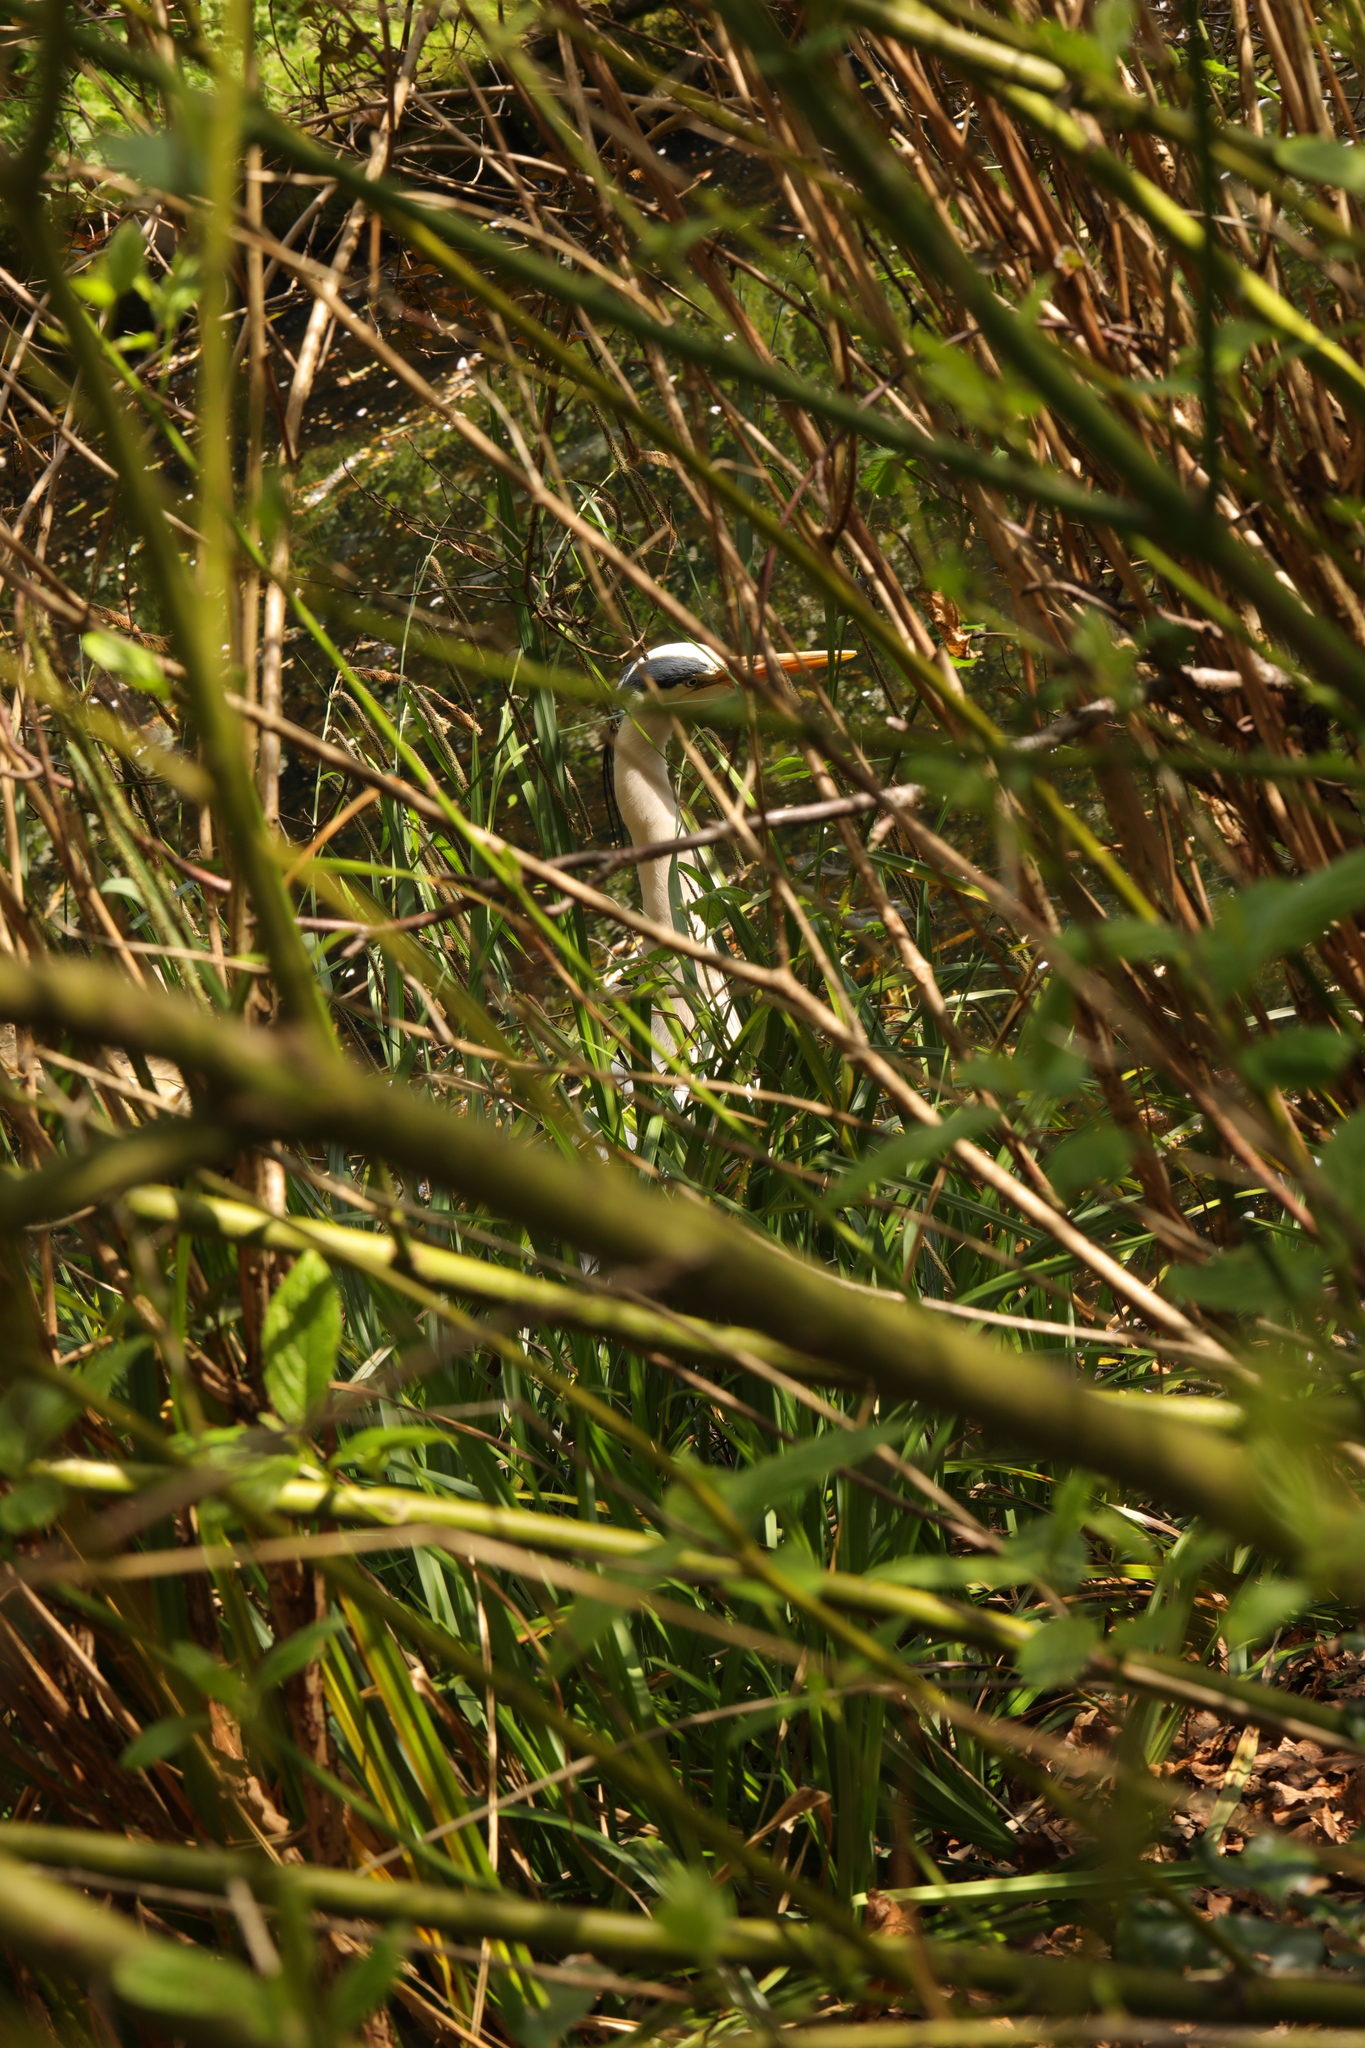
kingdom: Animalia
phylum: Chordata
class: Aves
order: Pelecaniformes
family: Ardeidae
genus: Ardea
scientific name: Ardea cinerea
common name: Grey heron
